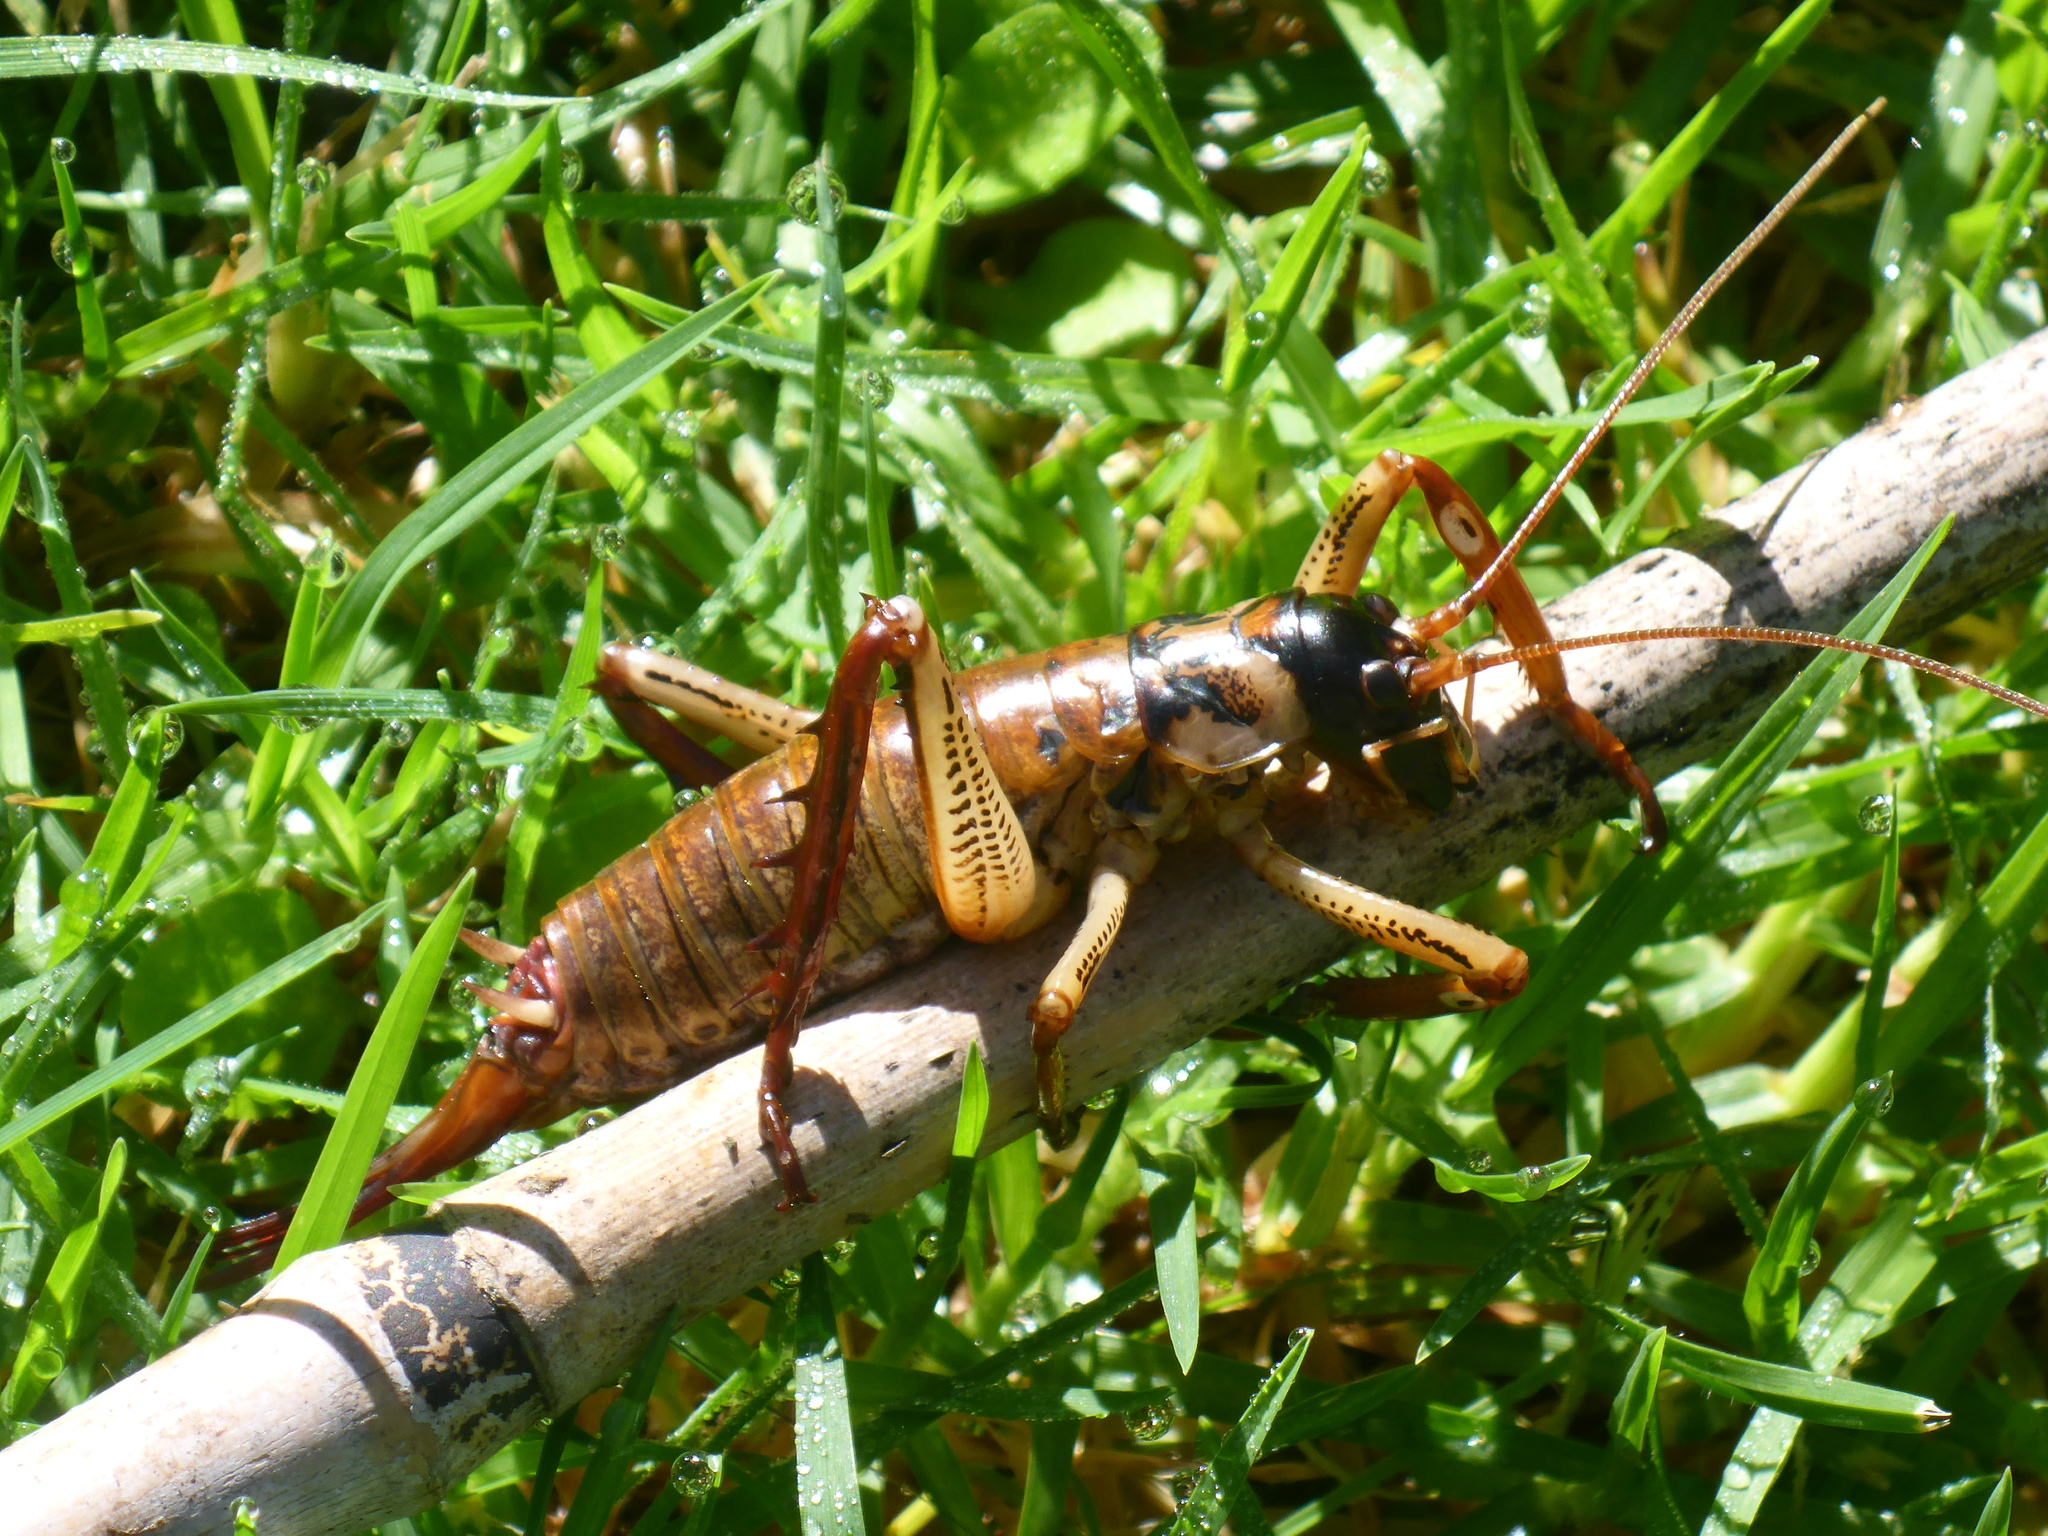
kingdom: Animalia
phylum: Arthropoda
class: Insecta
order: Orthoptera
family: Anostostomatidae
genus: Hemideina
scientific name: Hemideina thoracica
